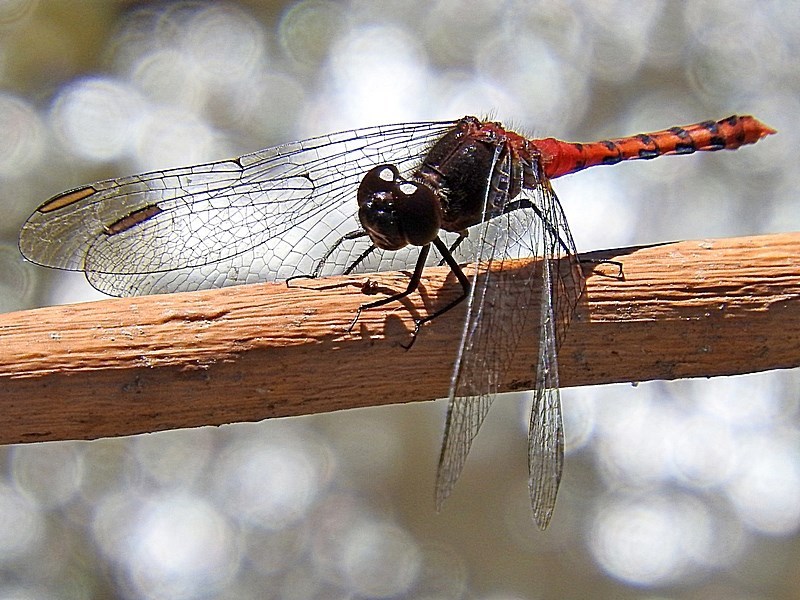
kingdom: Animalia
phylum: Arthropoda
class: Insecta
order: Odonata
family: Libellulidae
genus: Diplacodes
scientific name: Diplacodes melanopsis
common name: Black-faced percher
